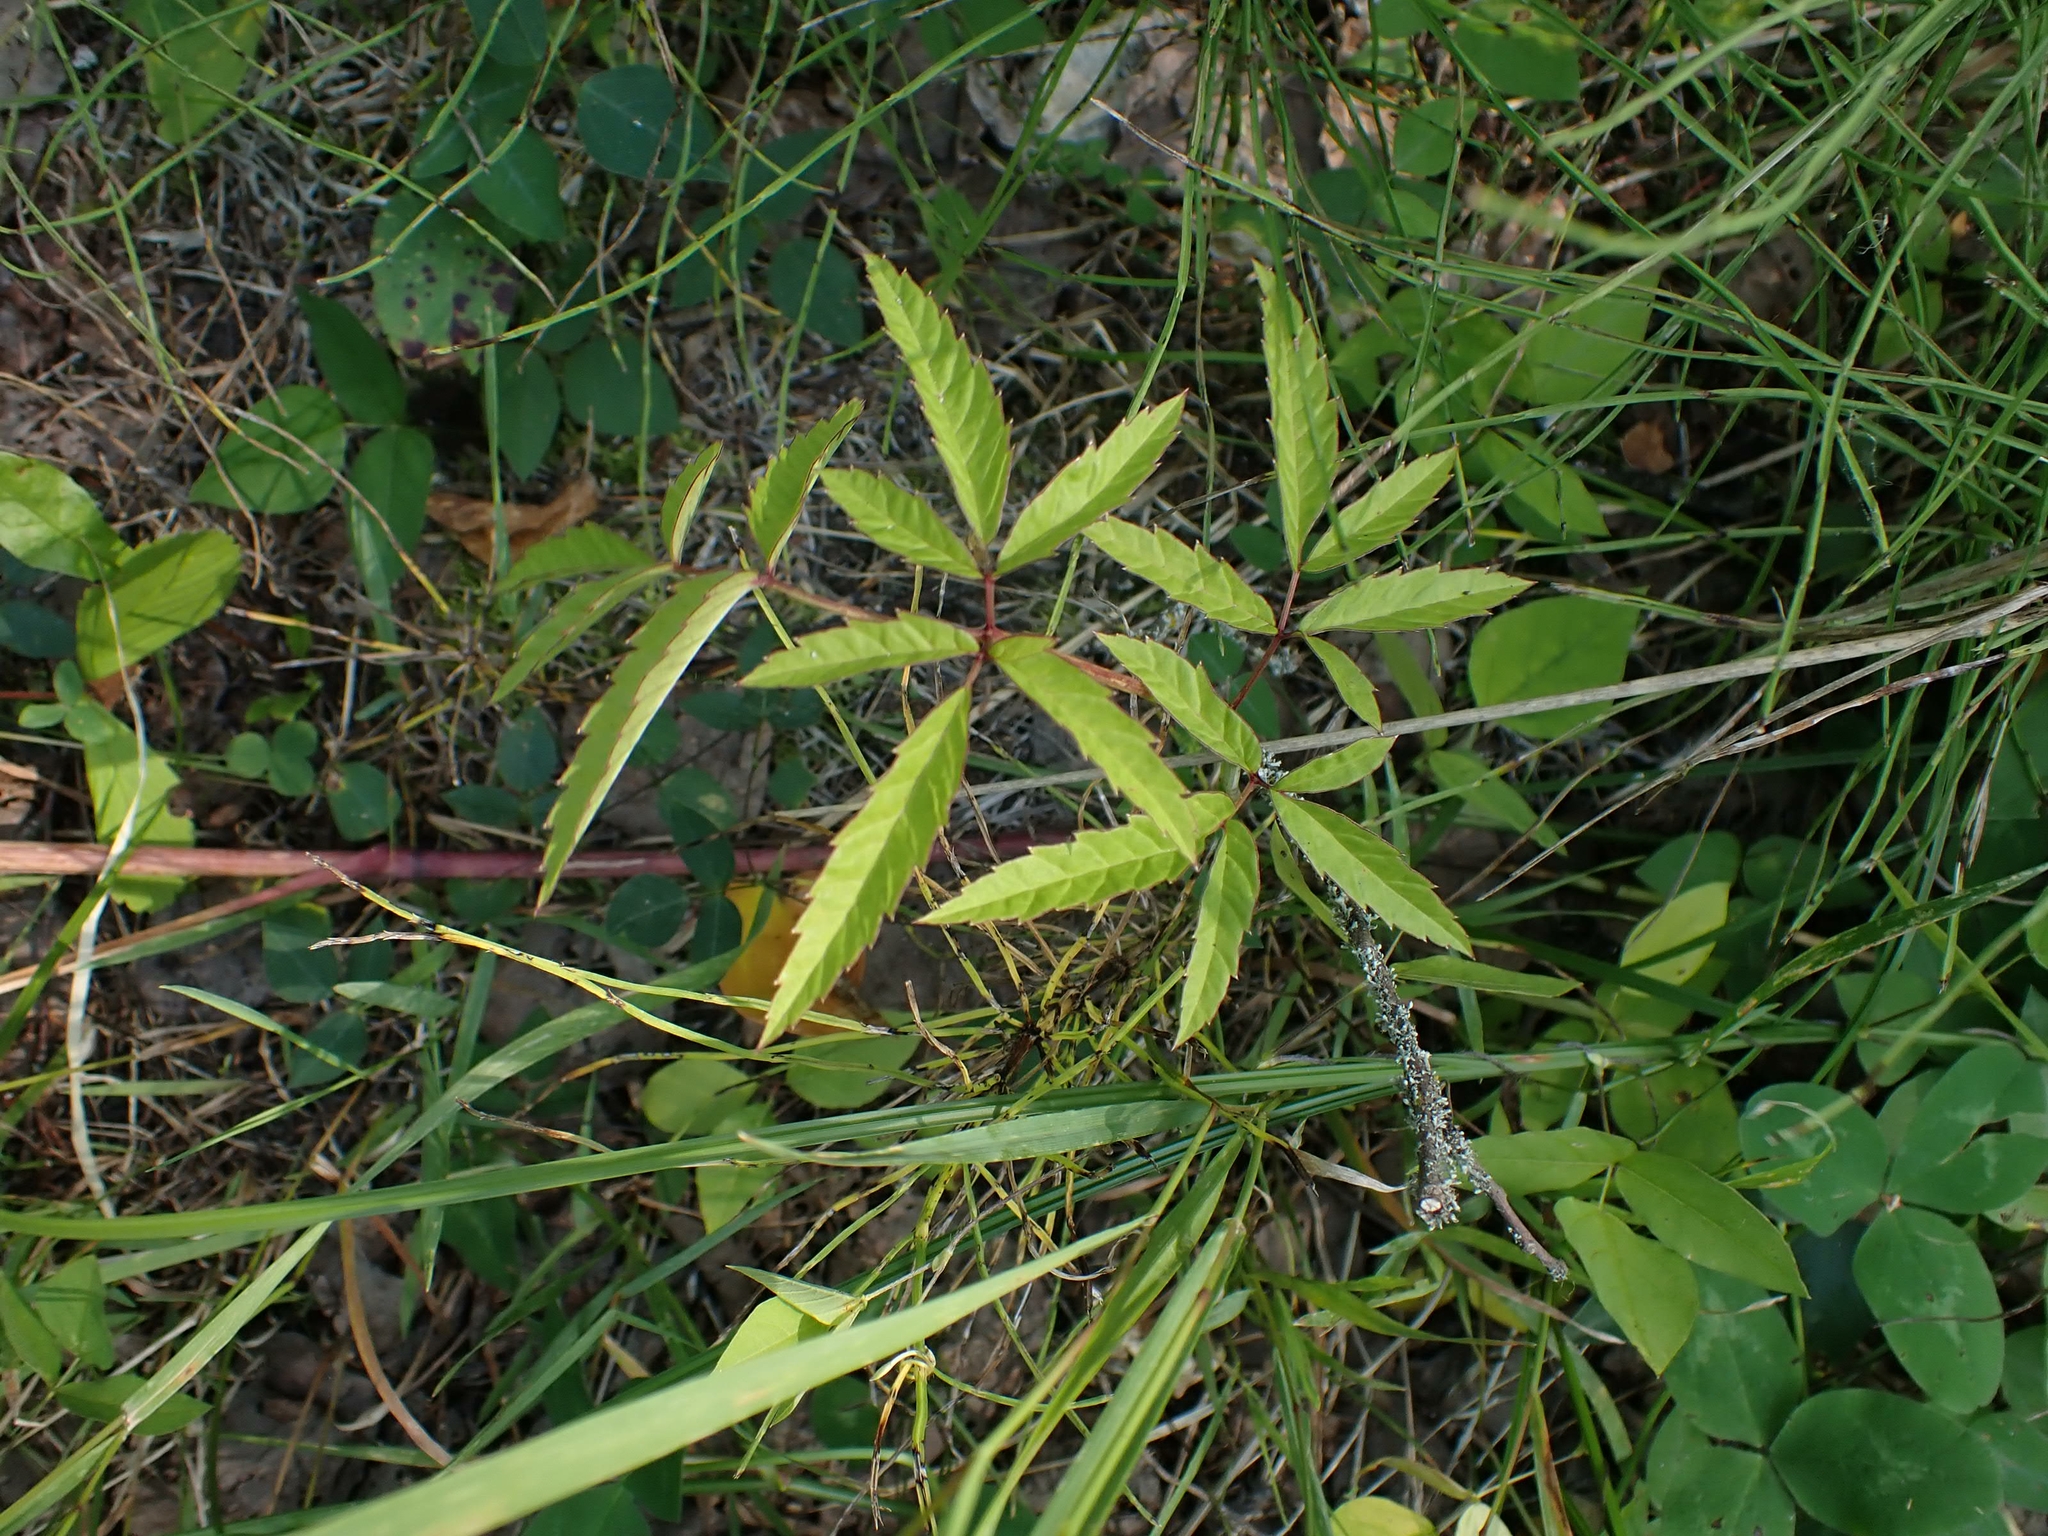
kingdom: Plantae
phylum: Tracheophyta
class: Magnoliopsida
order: Apiales
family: Apiaceae
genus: Cicuta
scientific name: Cicuta maculata
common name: Spotted cowbane
